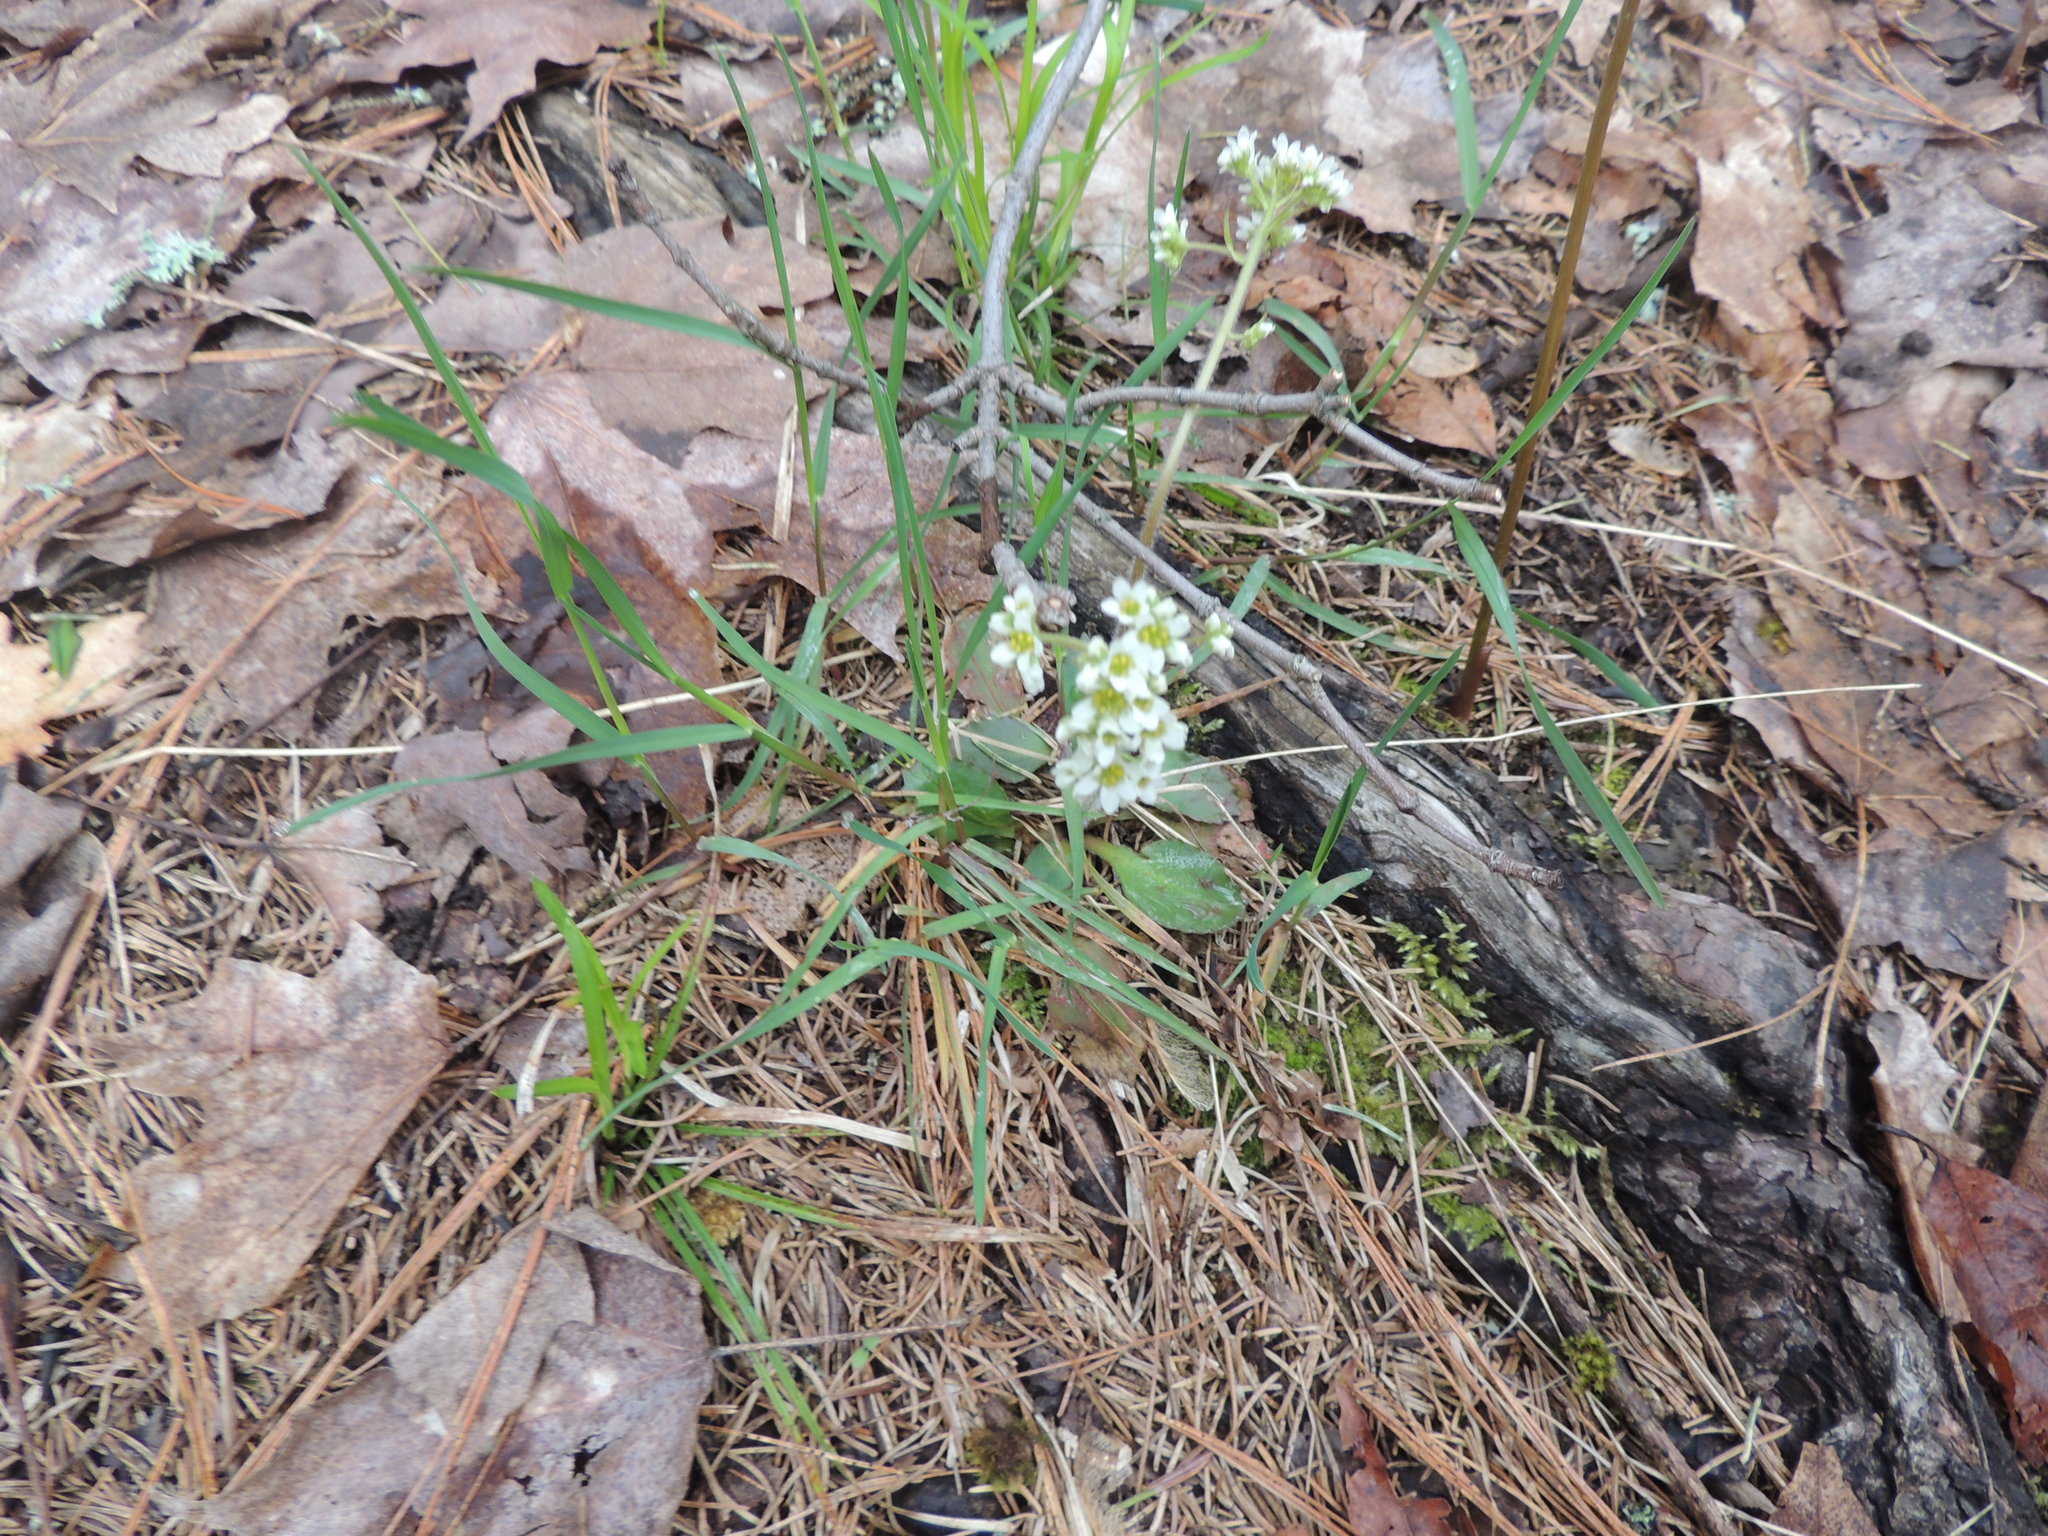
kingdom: Plantae
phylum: Tracheophyta
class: Magnoliopsida
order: Saxifragales
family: Saxifragaceae
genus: Micranthes
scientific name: Micranthes virginiensis
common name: Early saxifrage
